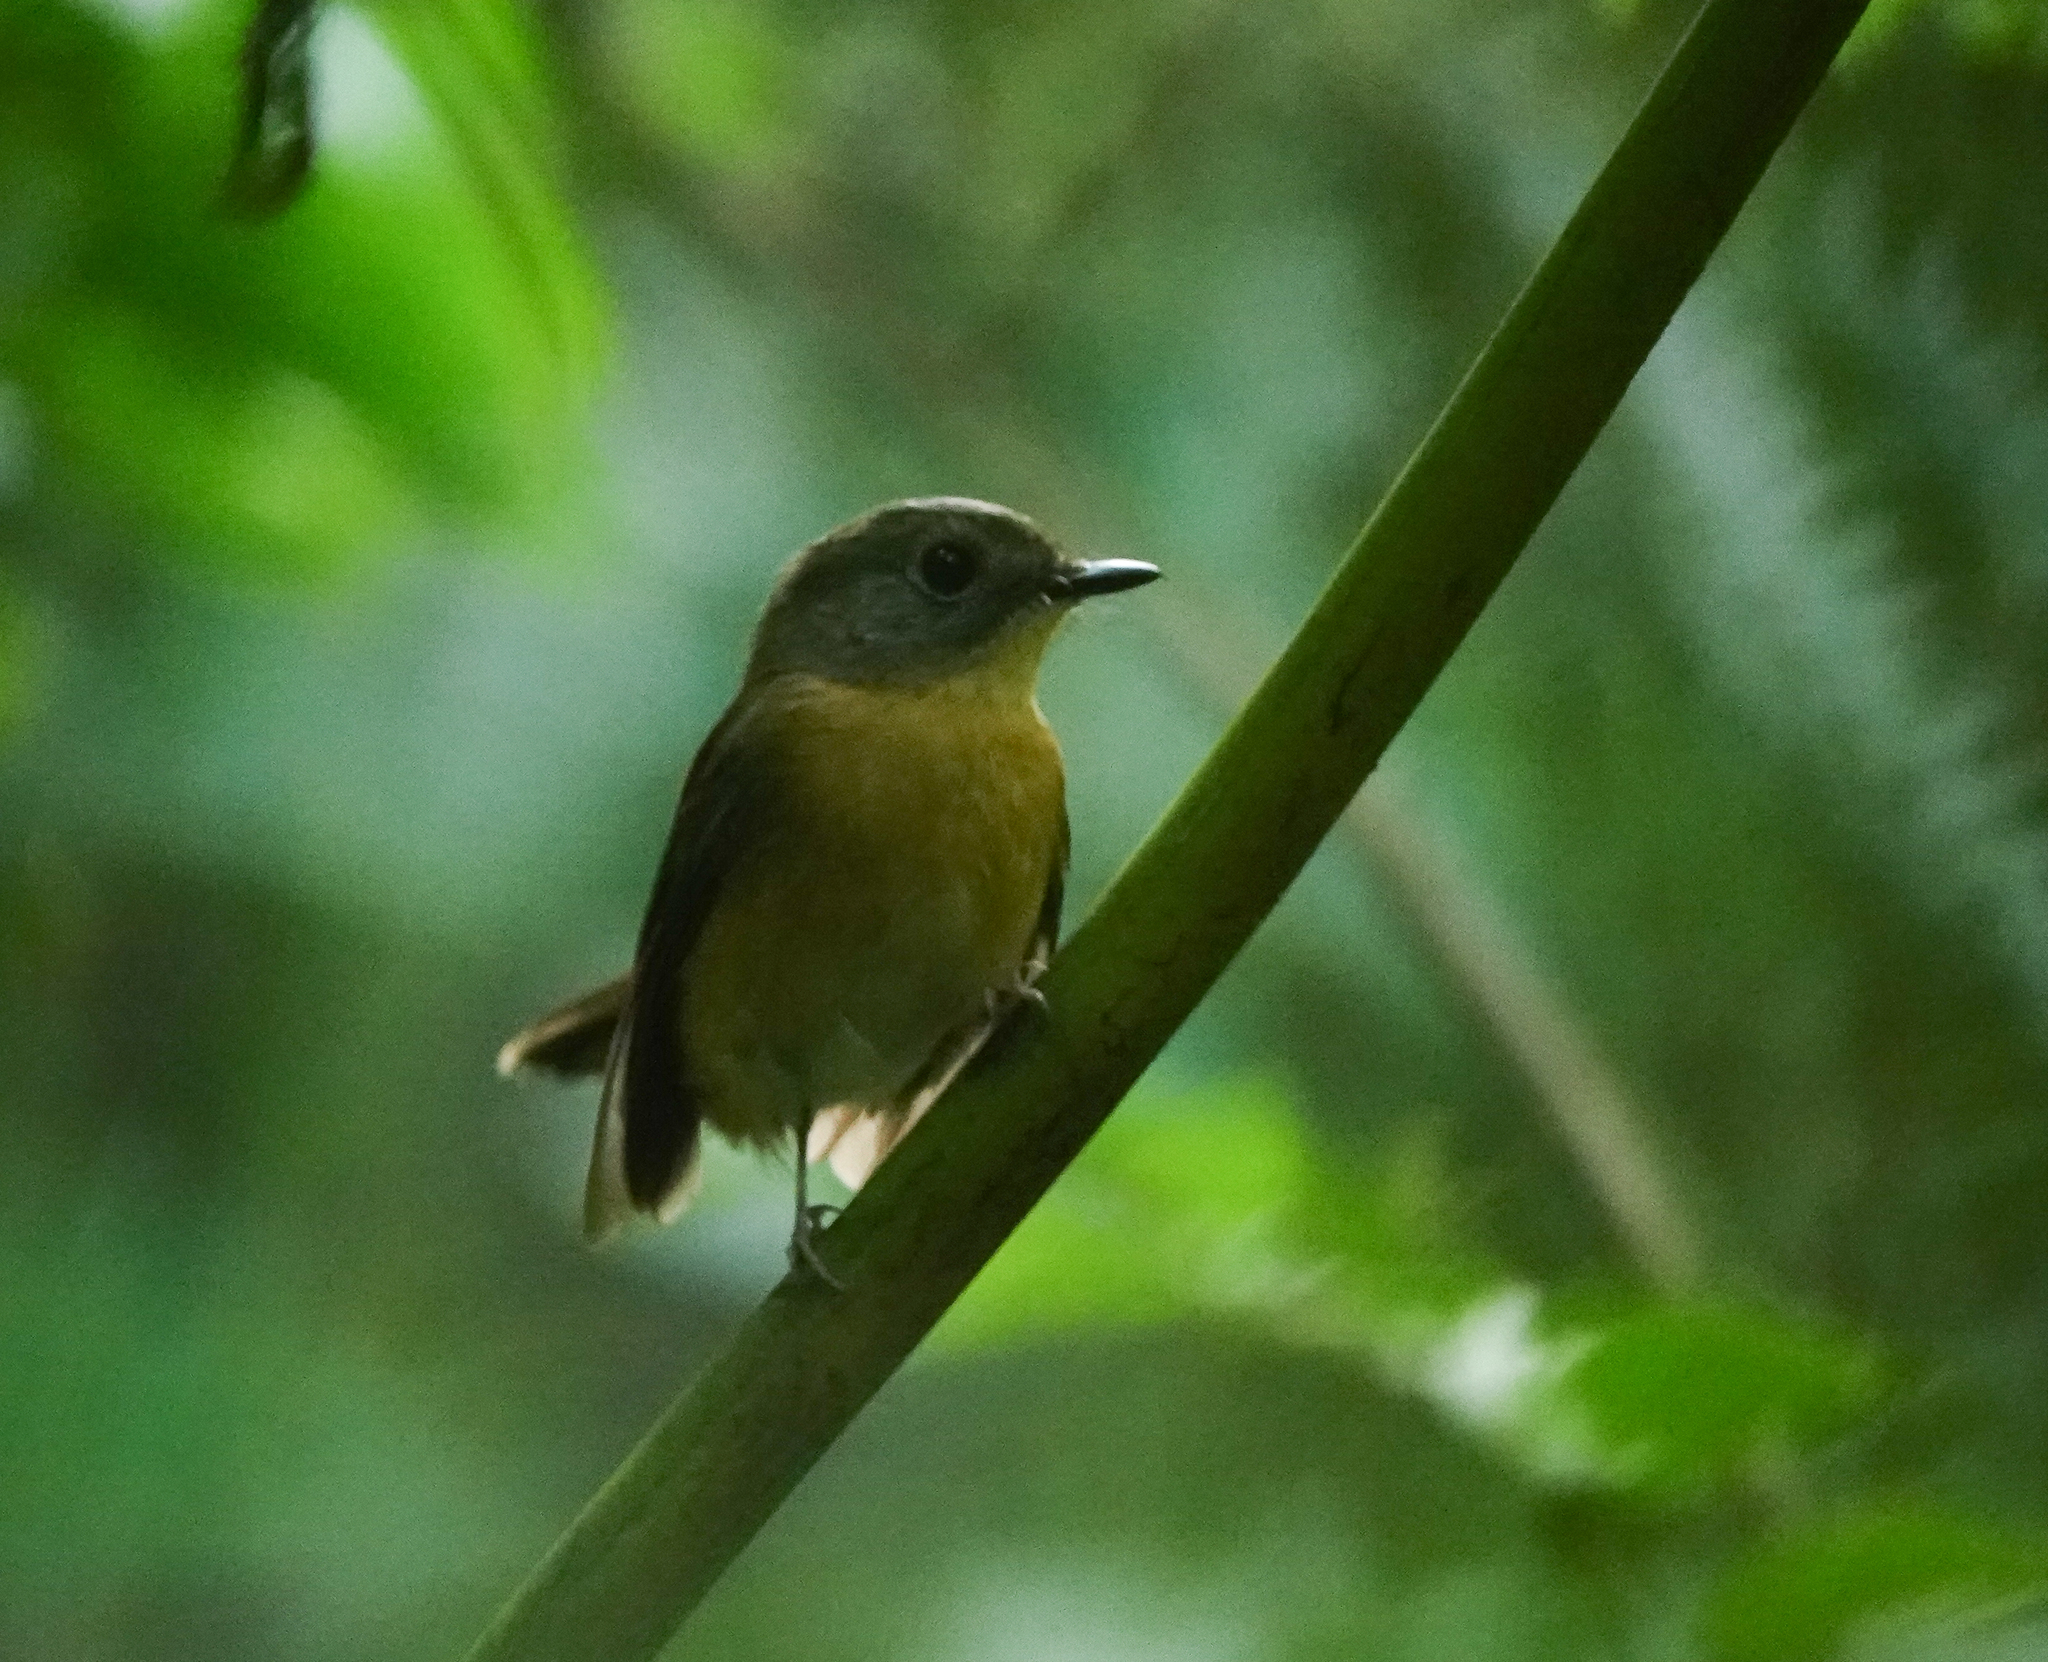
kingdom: Animalia
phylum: Chordata
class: Aves
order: Passeriformes
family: Muscicapidae
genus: Cyornis
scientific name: Cyornis poliogenys
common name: Pale-chinned blue flycatcher
